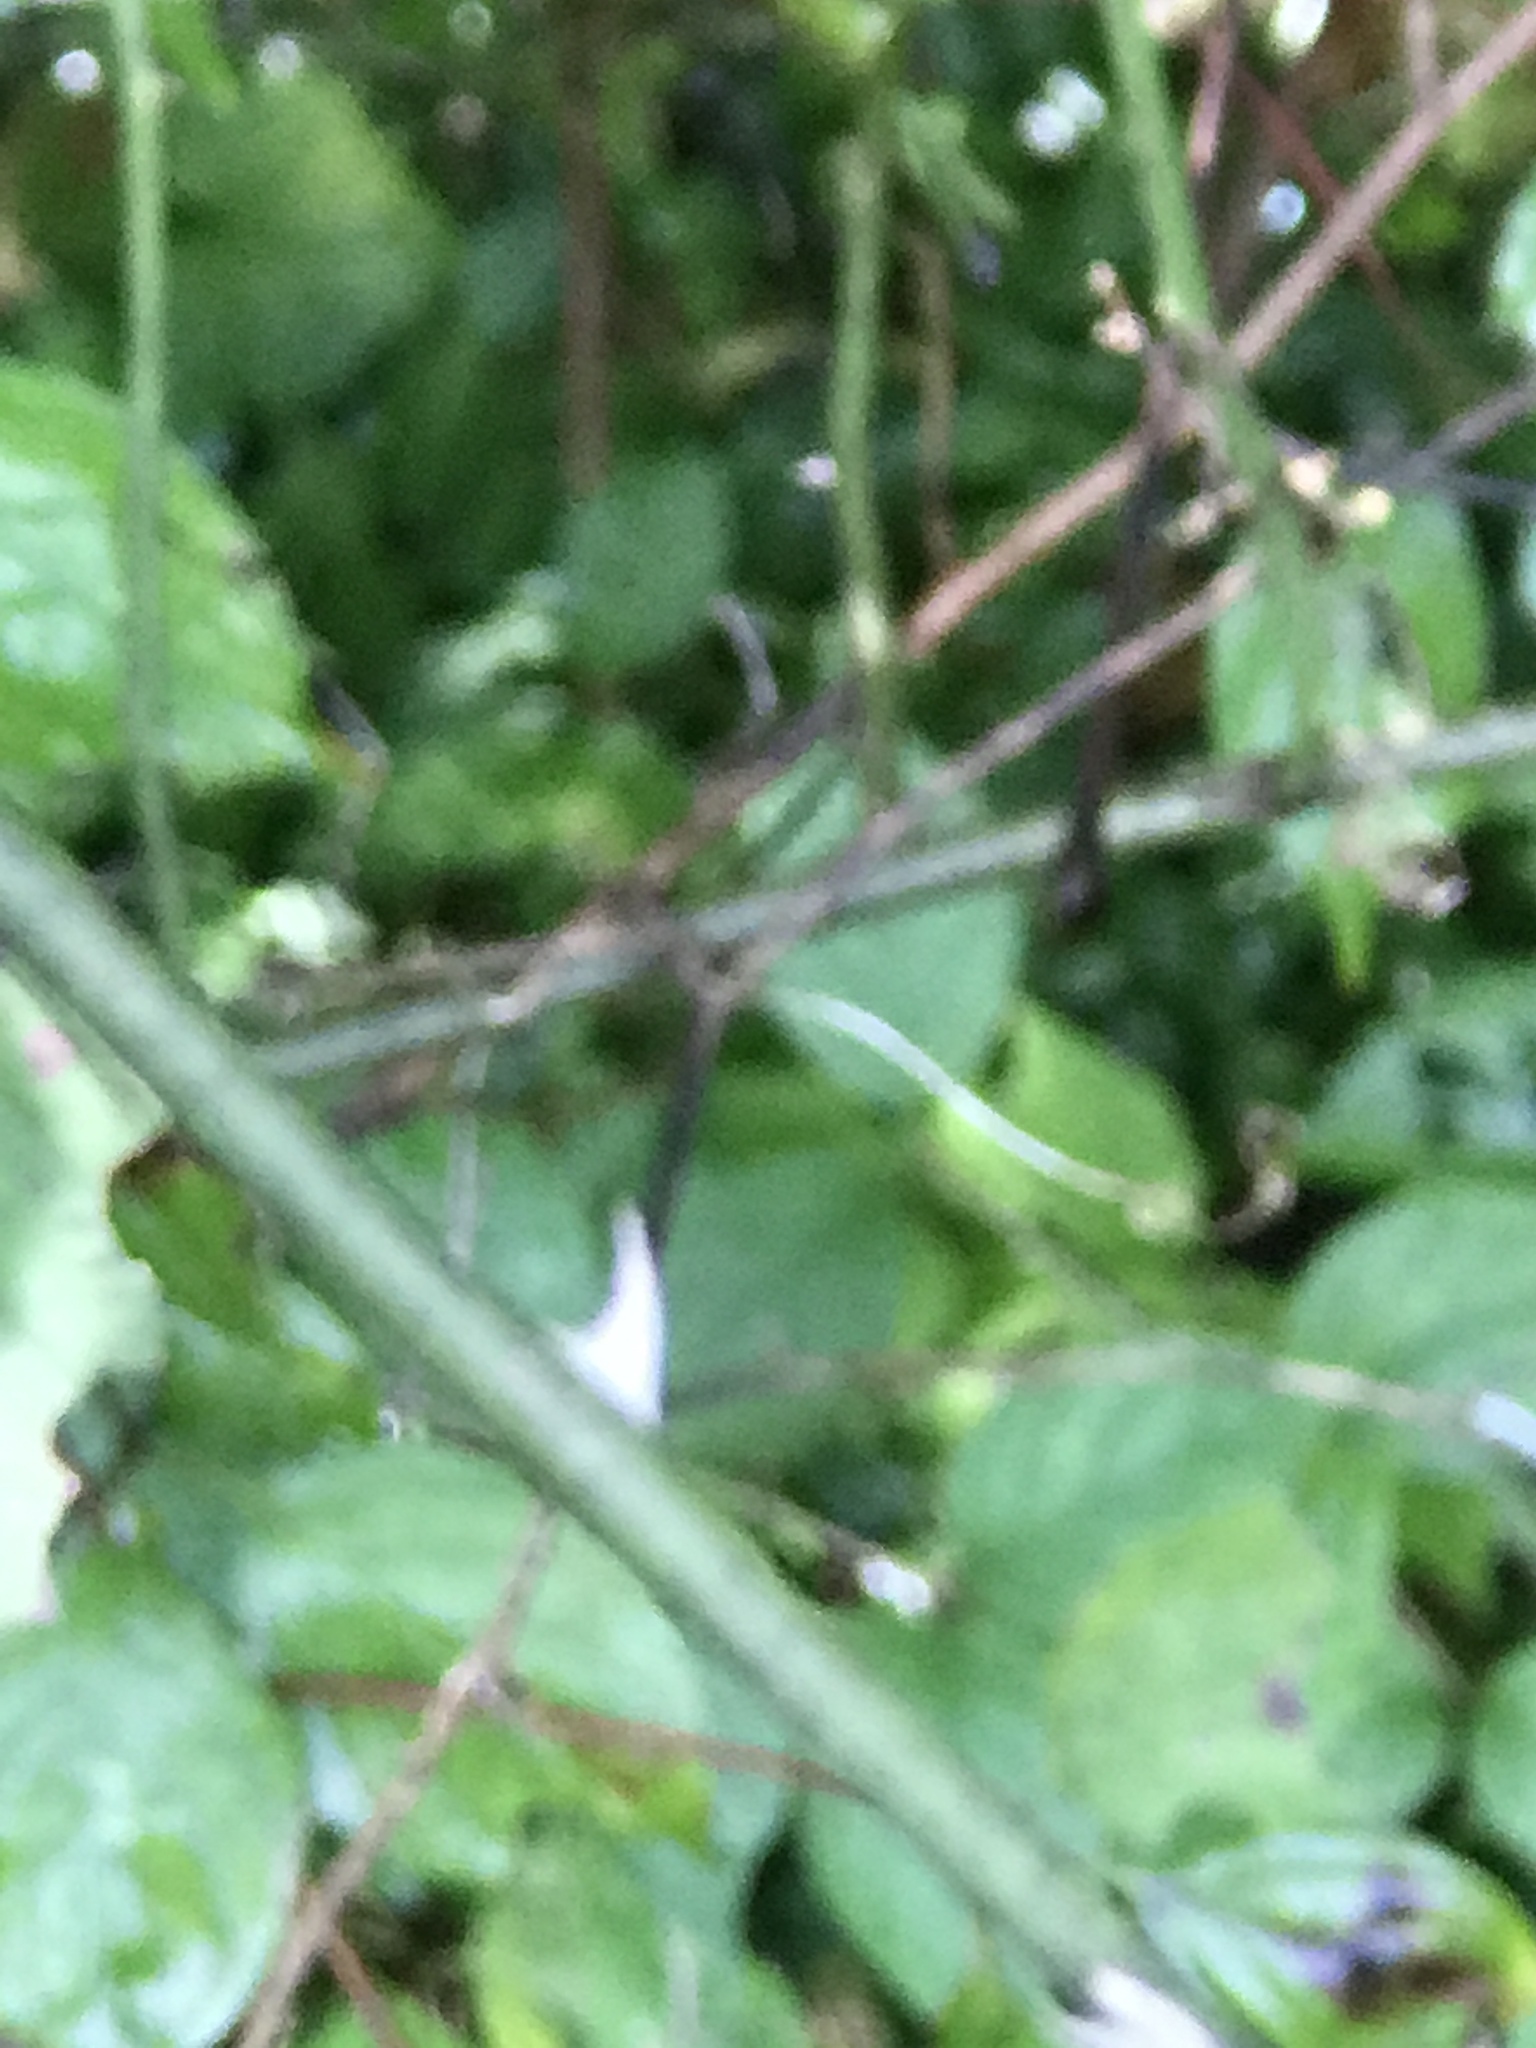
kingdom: Plantae
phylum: Tracheophyta
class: Magnoliopsida
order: Rosales
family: Rosaceae
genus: Rosa
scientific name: Rosa multiflora
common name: Multiflora rose
